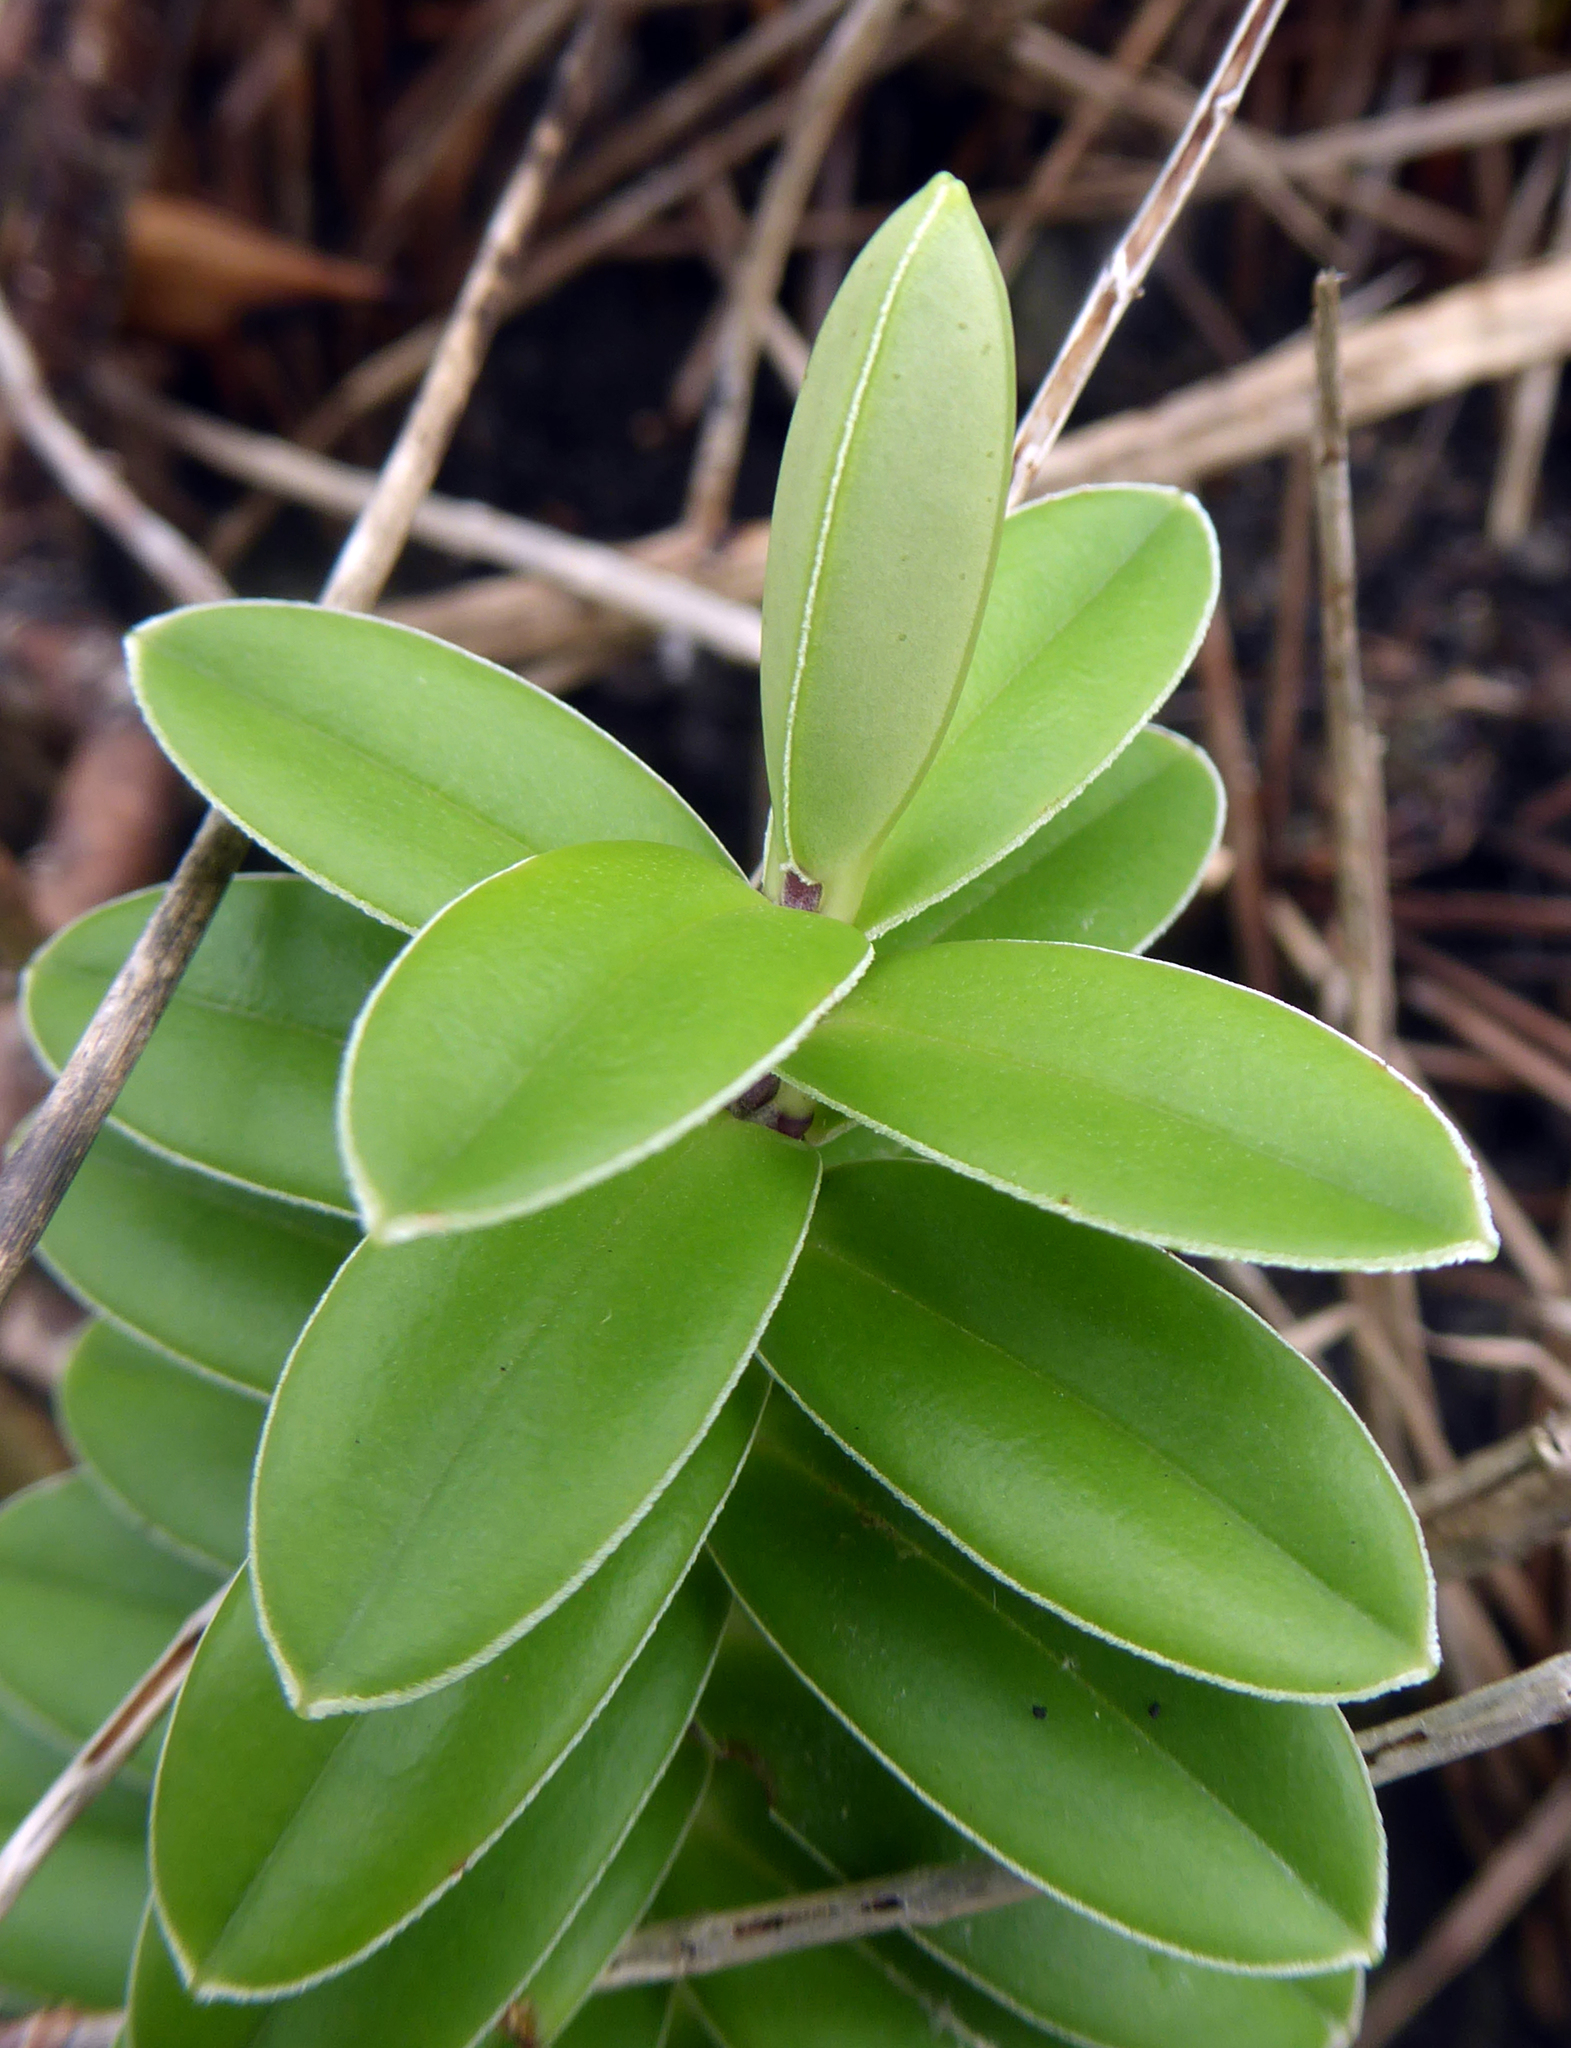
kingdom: Plantae
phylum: Tracheophyta
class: Magnoliopsida
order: Lamiales
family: Plantaginaceae
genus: Veronica
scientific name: Veronica elliptica
